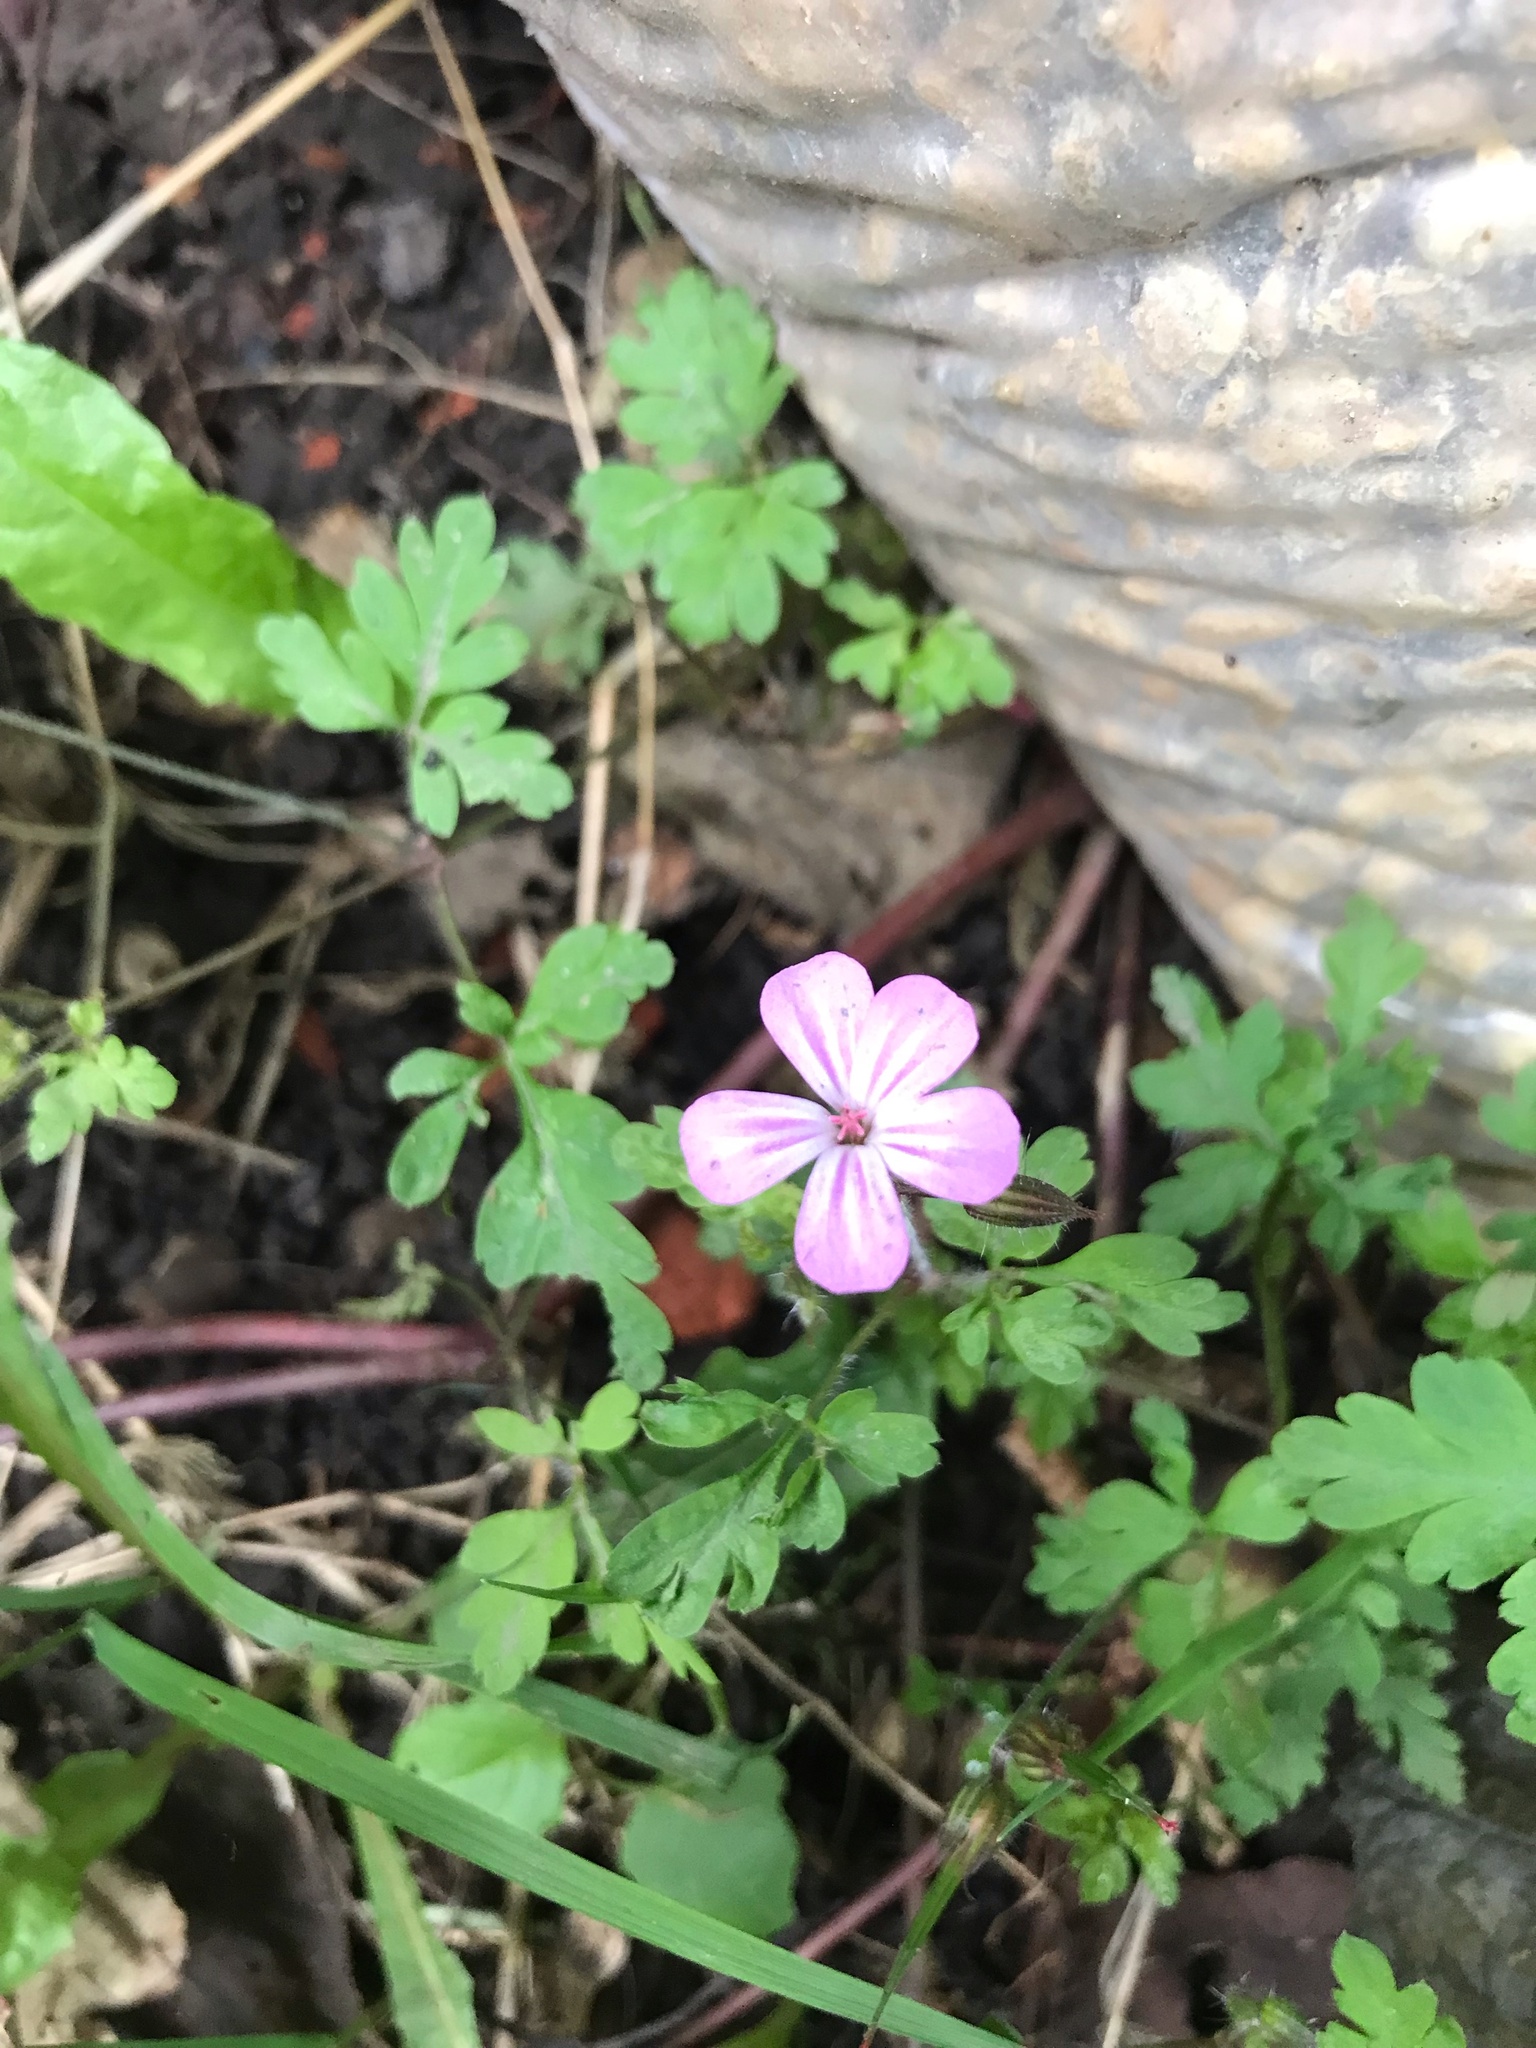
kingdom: Plantae
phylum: Tracheophyta
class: Magnoliopsida
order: Geraniales
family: Geraniaceae
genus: Geranium
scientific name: Geranium robertianum
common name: Herb-robert
